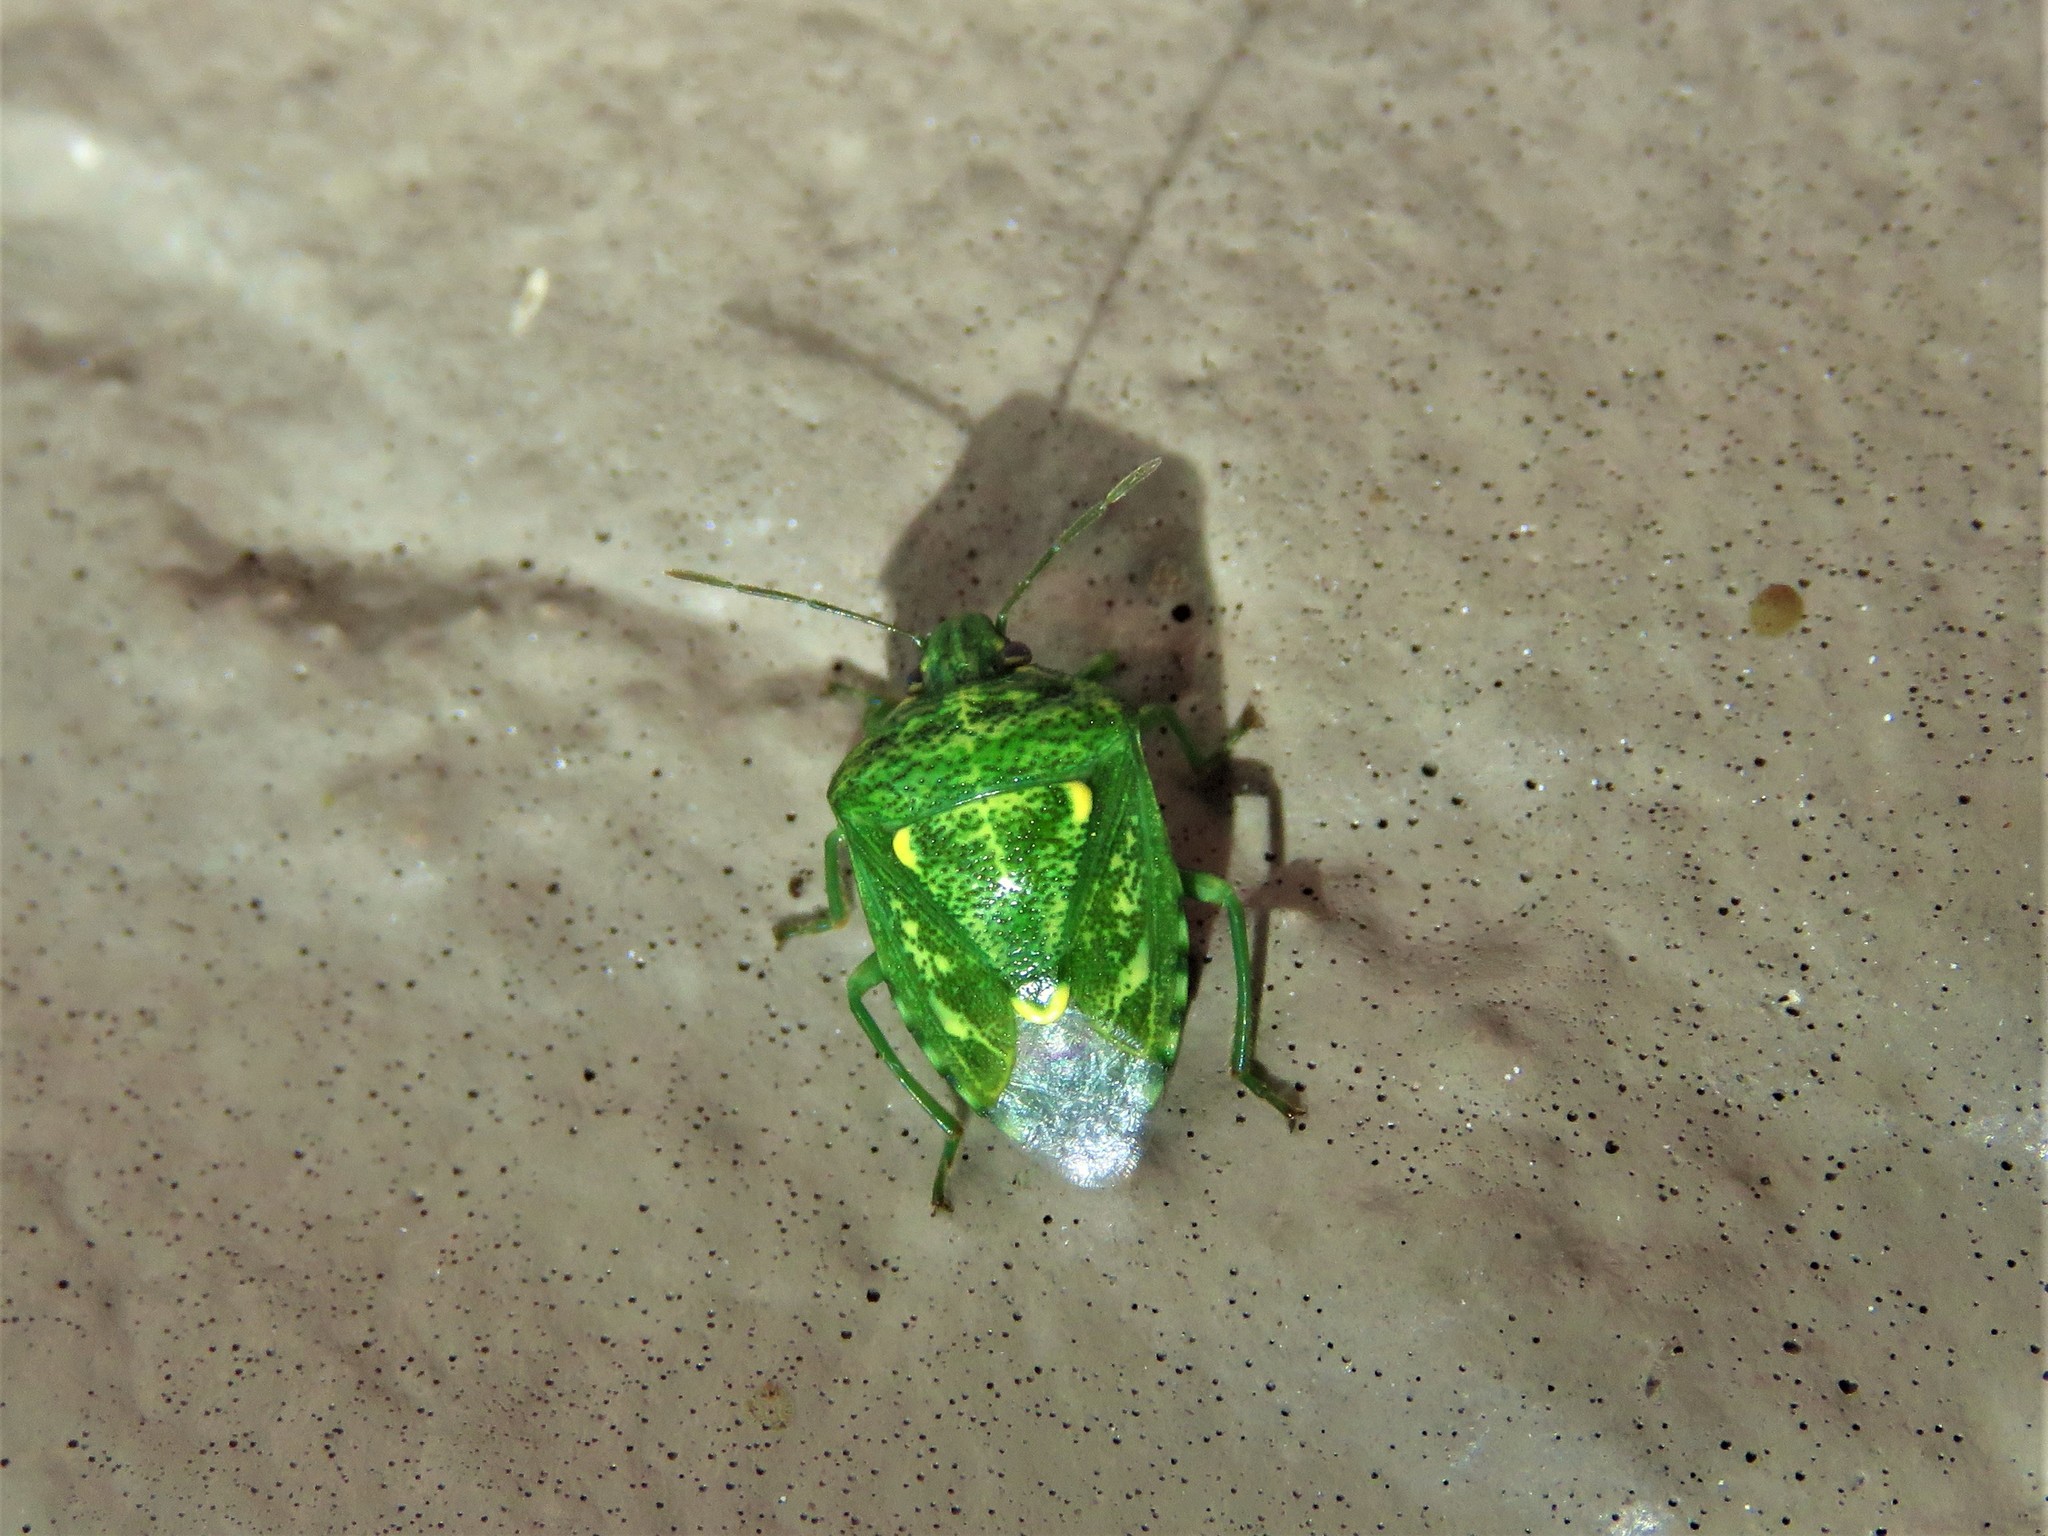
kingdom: Animalia
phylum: Arthropoda
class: Insecta
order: Hemiptera
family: Pentatomidae
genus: Banasa
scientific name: Banasa euchlora
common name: Cedar berry bug
